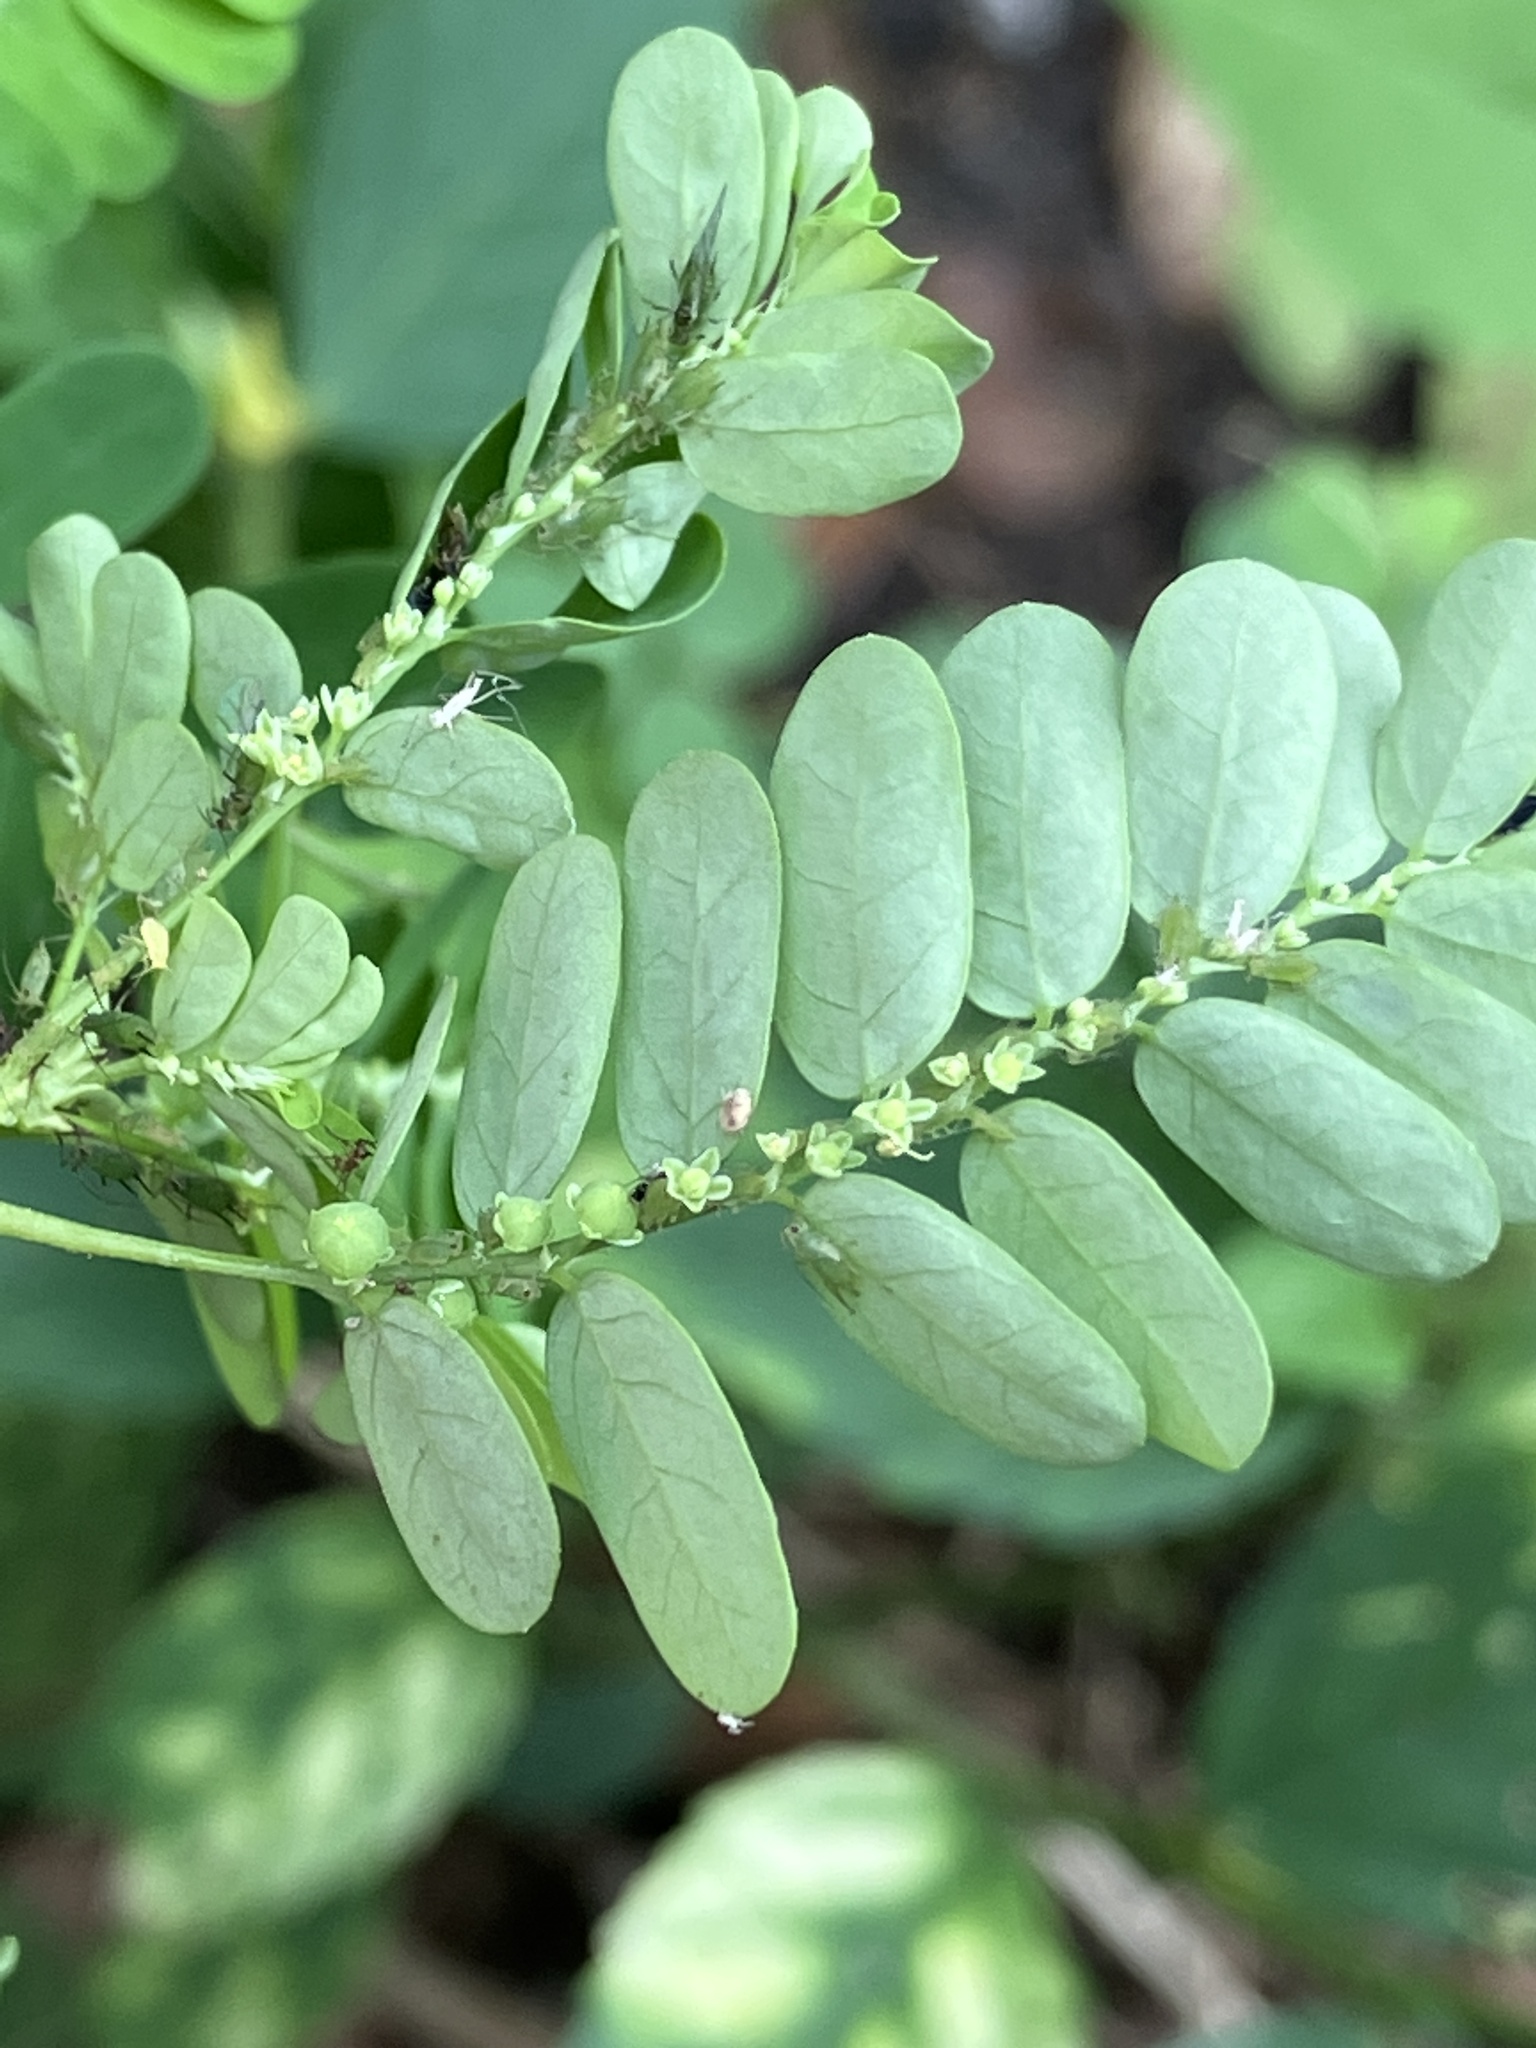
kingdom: Plantae
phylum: Tracheophyta
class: Magnoliopsida
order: Malpighiales
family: Phyllanthaceae
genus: Phyllanthus
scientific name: Phyllanthus amarus
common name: Carry me seed
